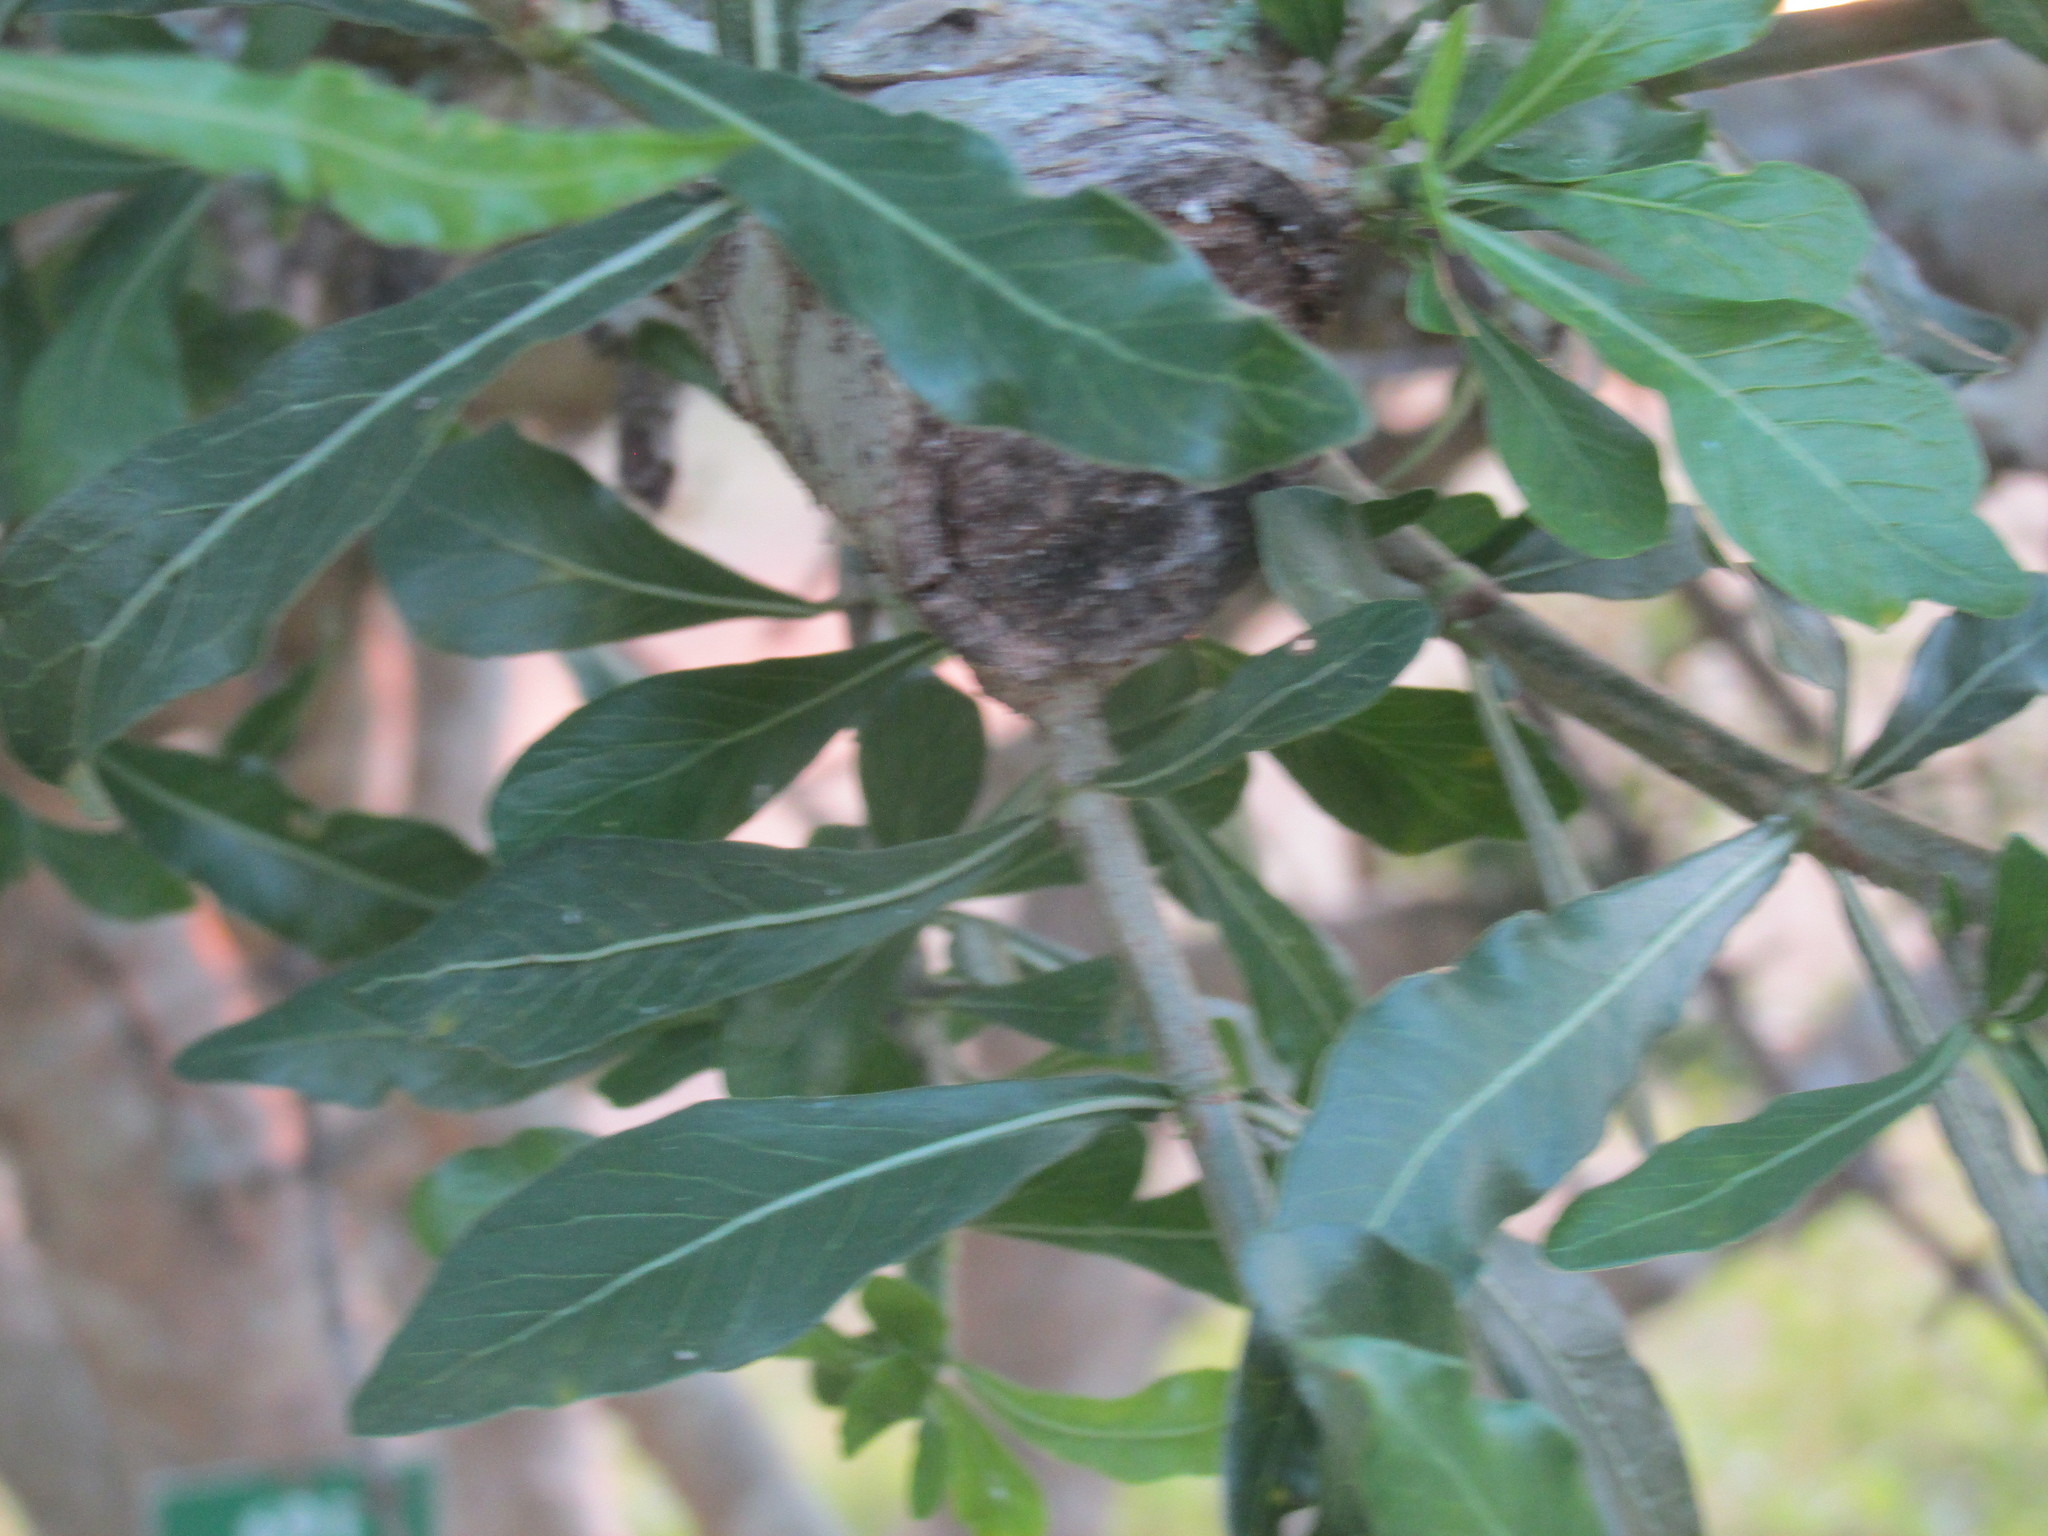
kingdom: Plantae
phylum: Tracheophyta
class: Magnoliopsida
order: Gentianales
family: Rubiaceae
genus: Gardenia
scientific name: Gardenia volkensii
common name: Common gardenia
